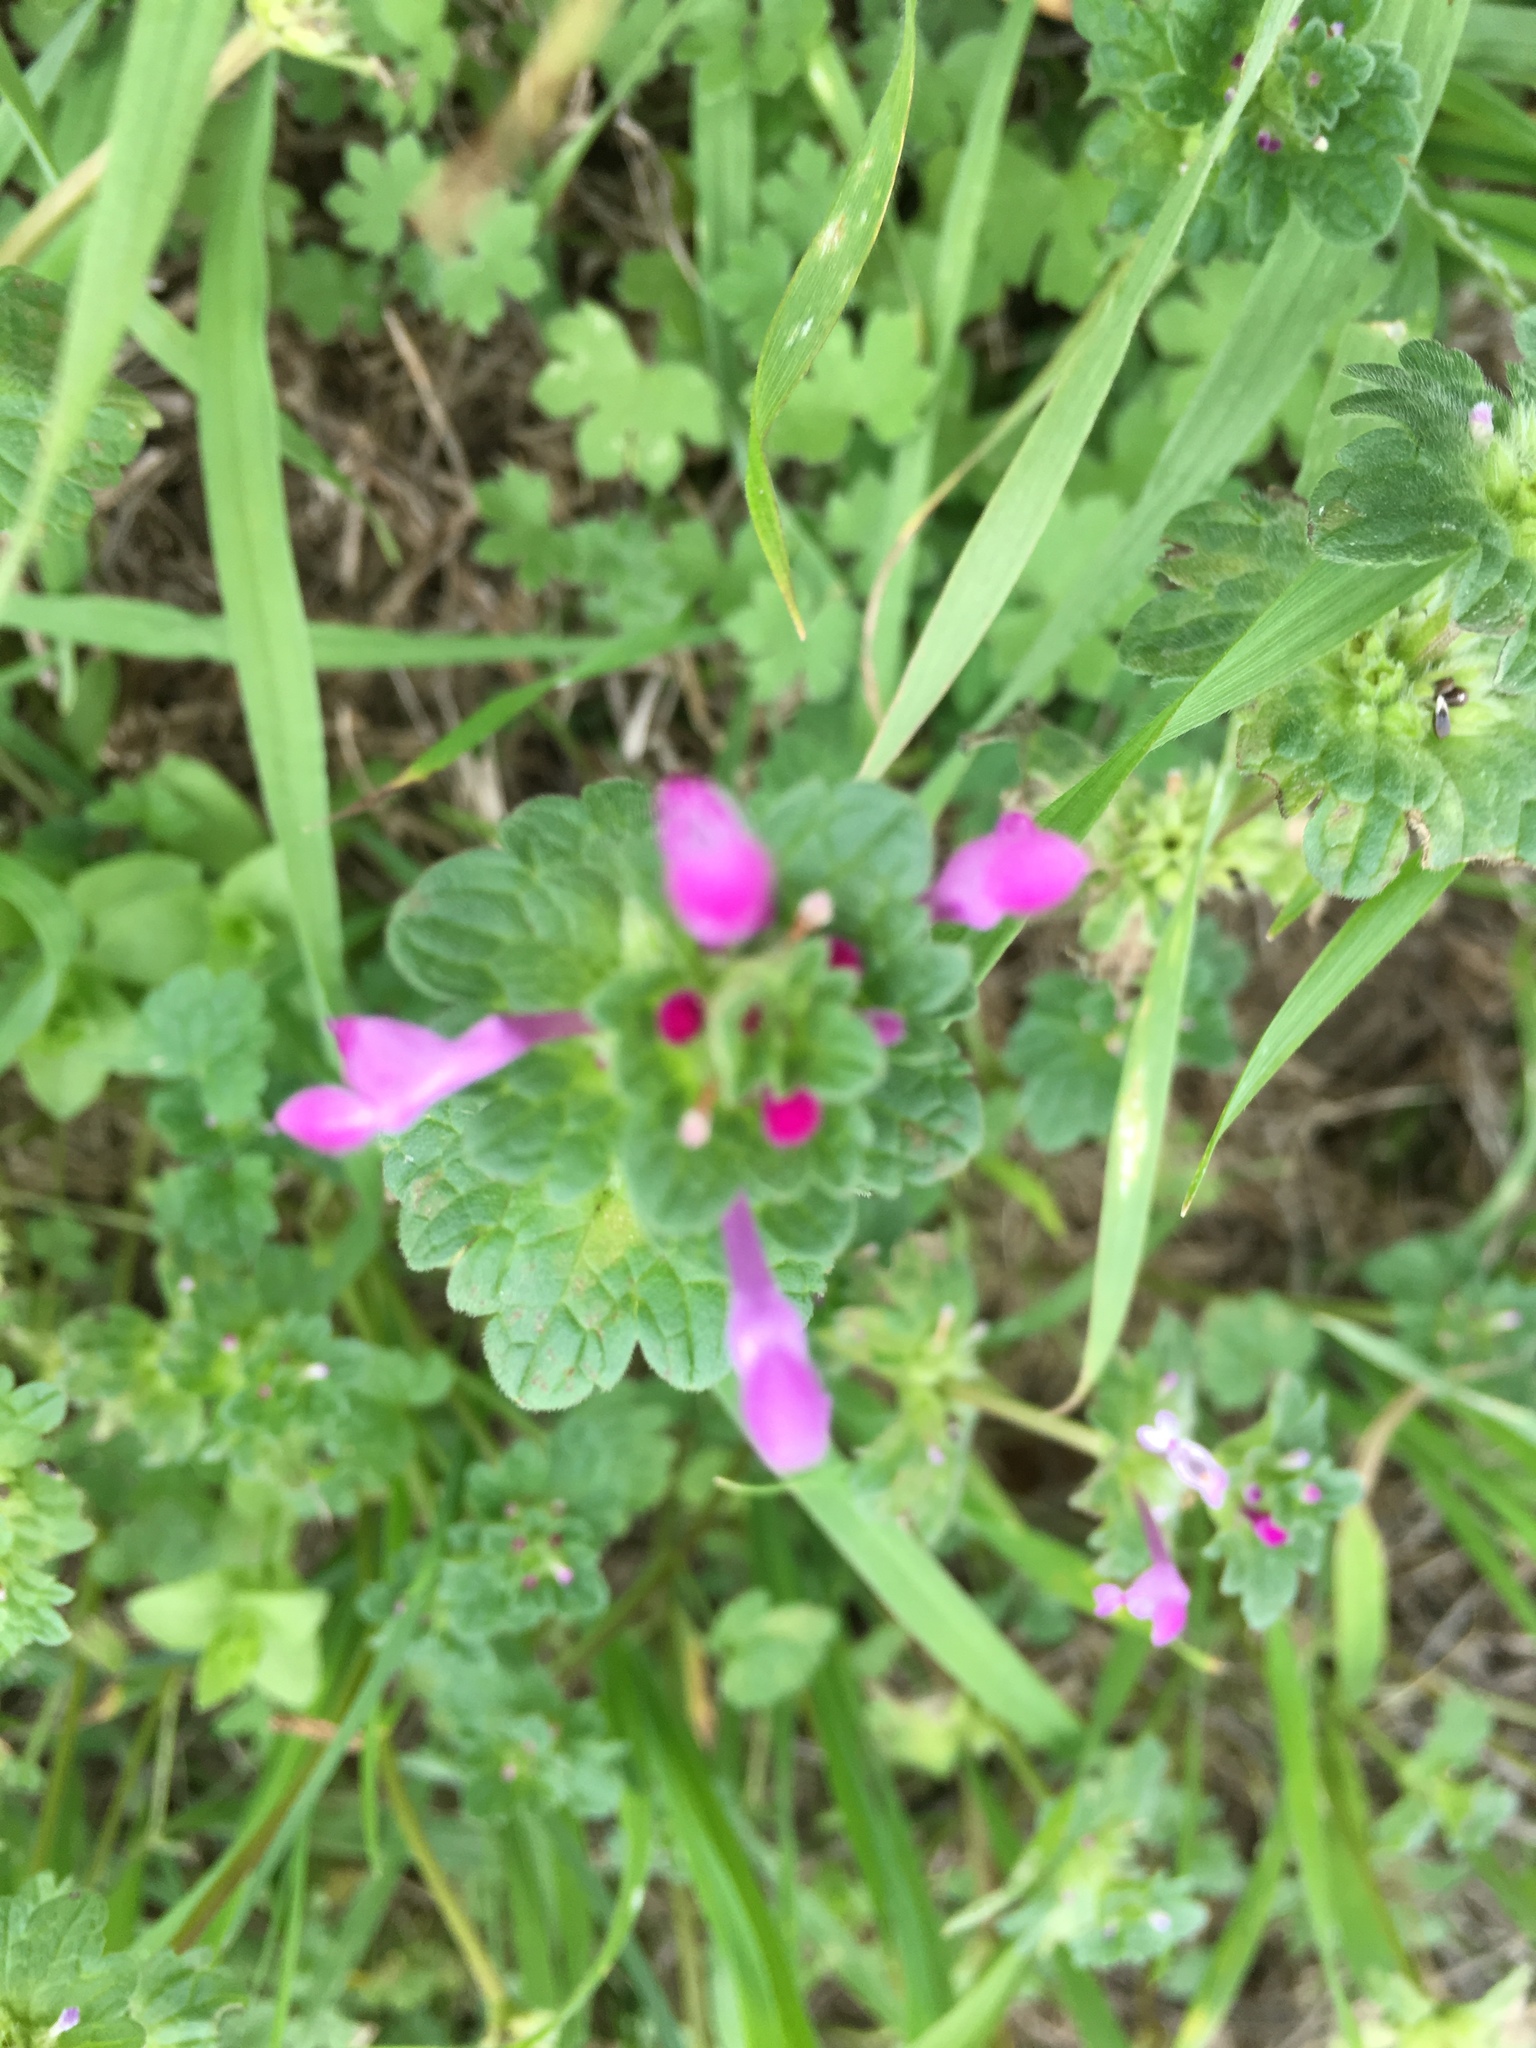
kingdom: Plantae
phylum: Tracheophyta
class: Magnoliopsida
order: Lamiales
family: Lamiaceae
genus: Lamium
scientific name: Lamium amplexicaule
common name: Henbit dead-nettle
